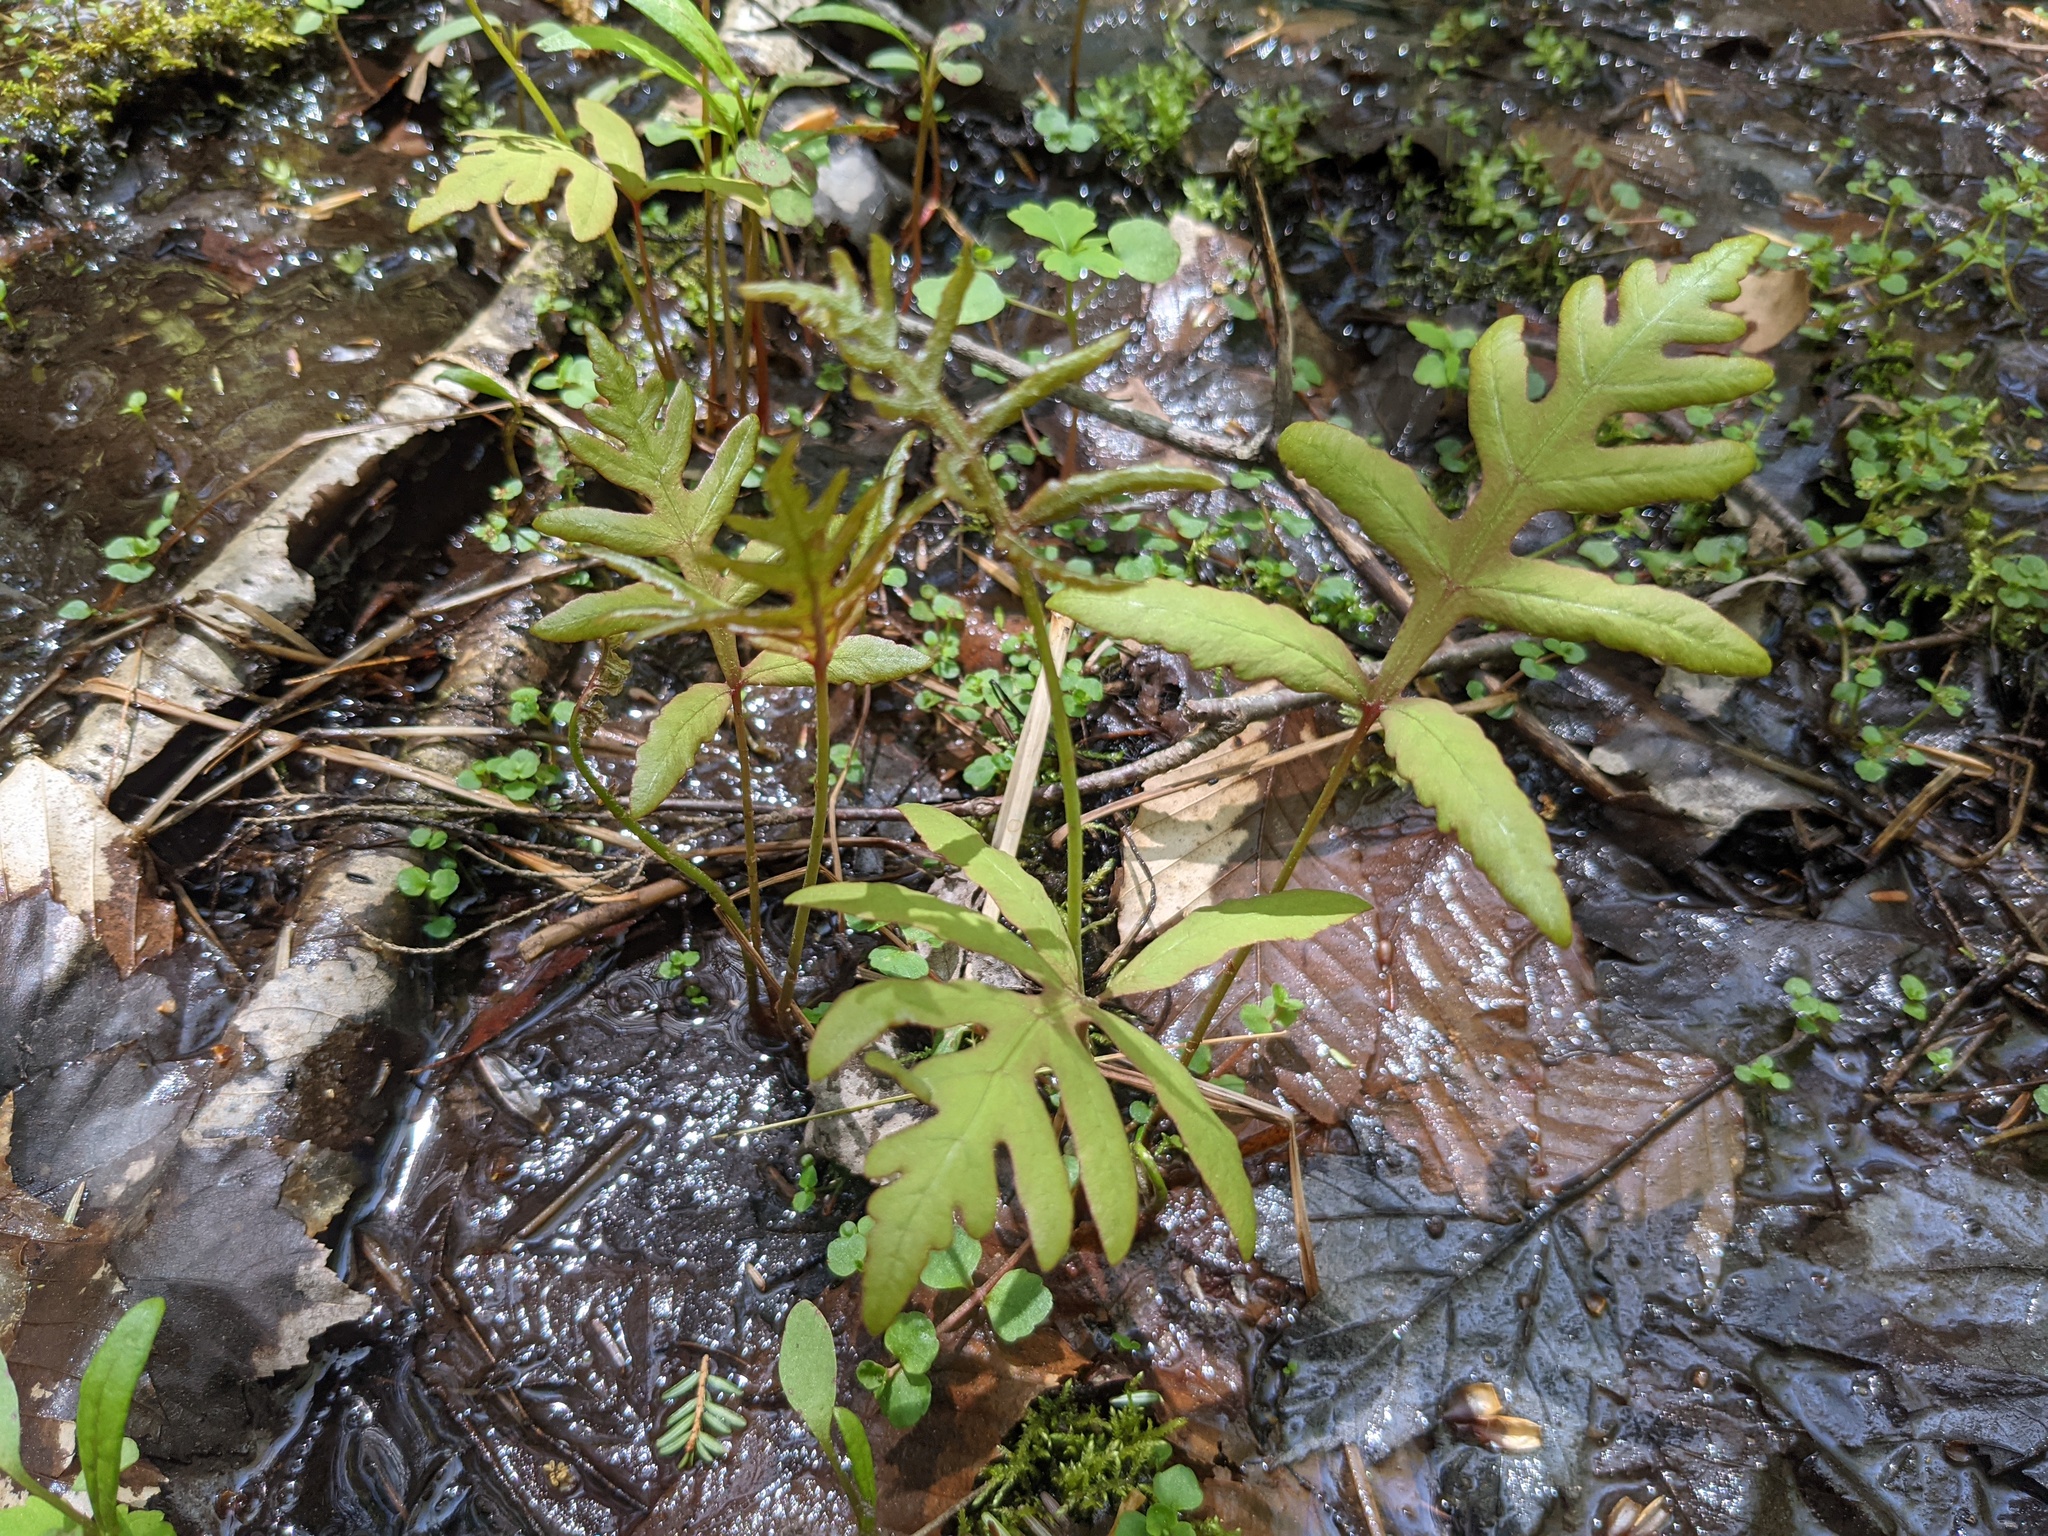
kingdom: Plantae
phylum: Tracheophyta
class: Polypodiopsida
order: Polypodiales
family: Onocleaceae
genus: Onoclea
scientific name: Onoclea sensibilis
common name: Sensitive fern
